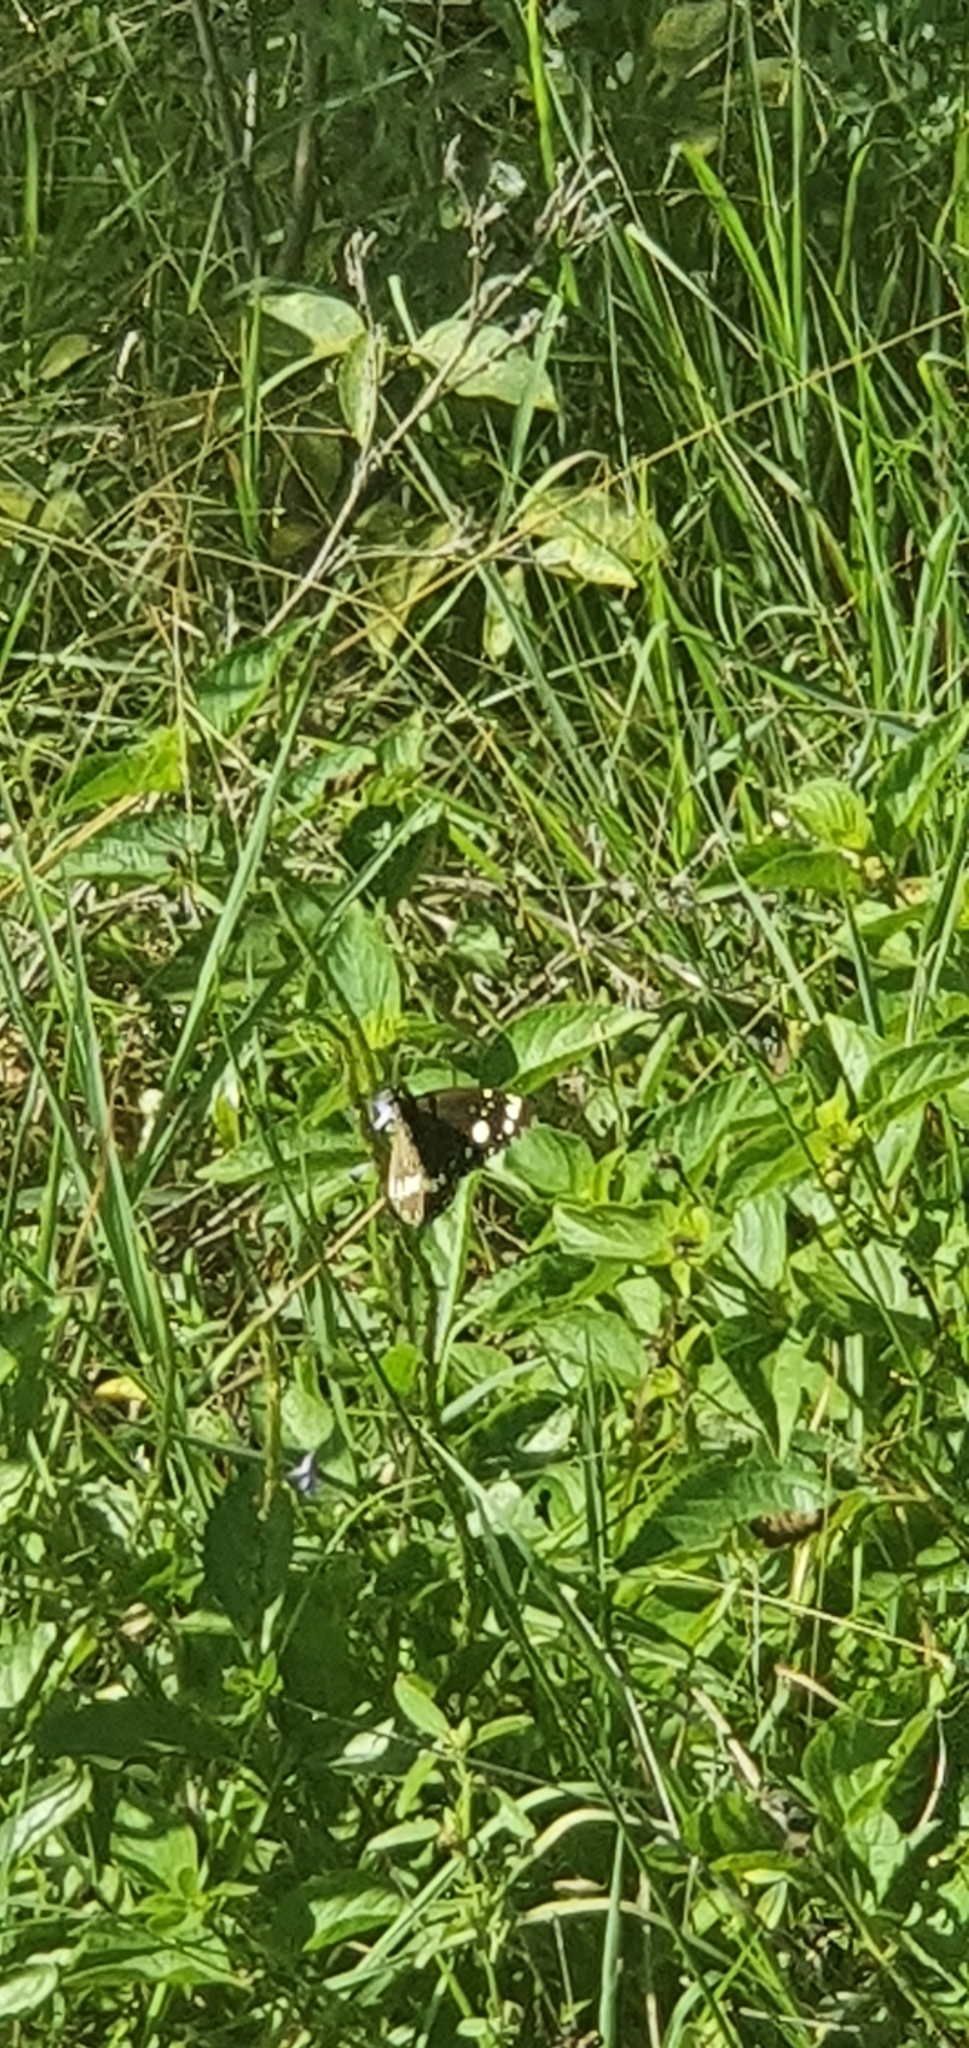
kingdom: Animalia
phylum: Arthropoda
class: Insecta
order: Lepidoptera
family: Nymphalidae
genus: Euploea
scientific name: Euploea core
